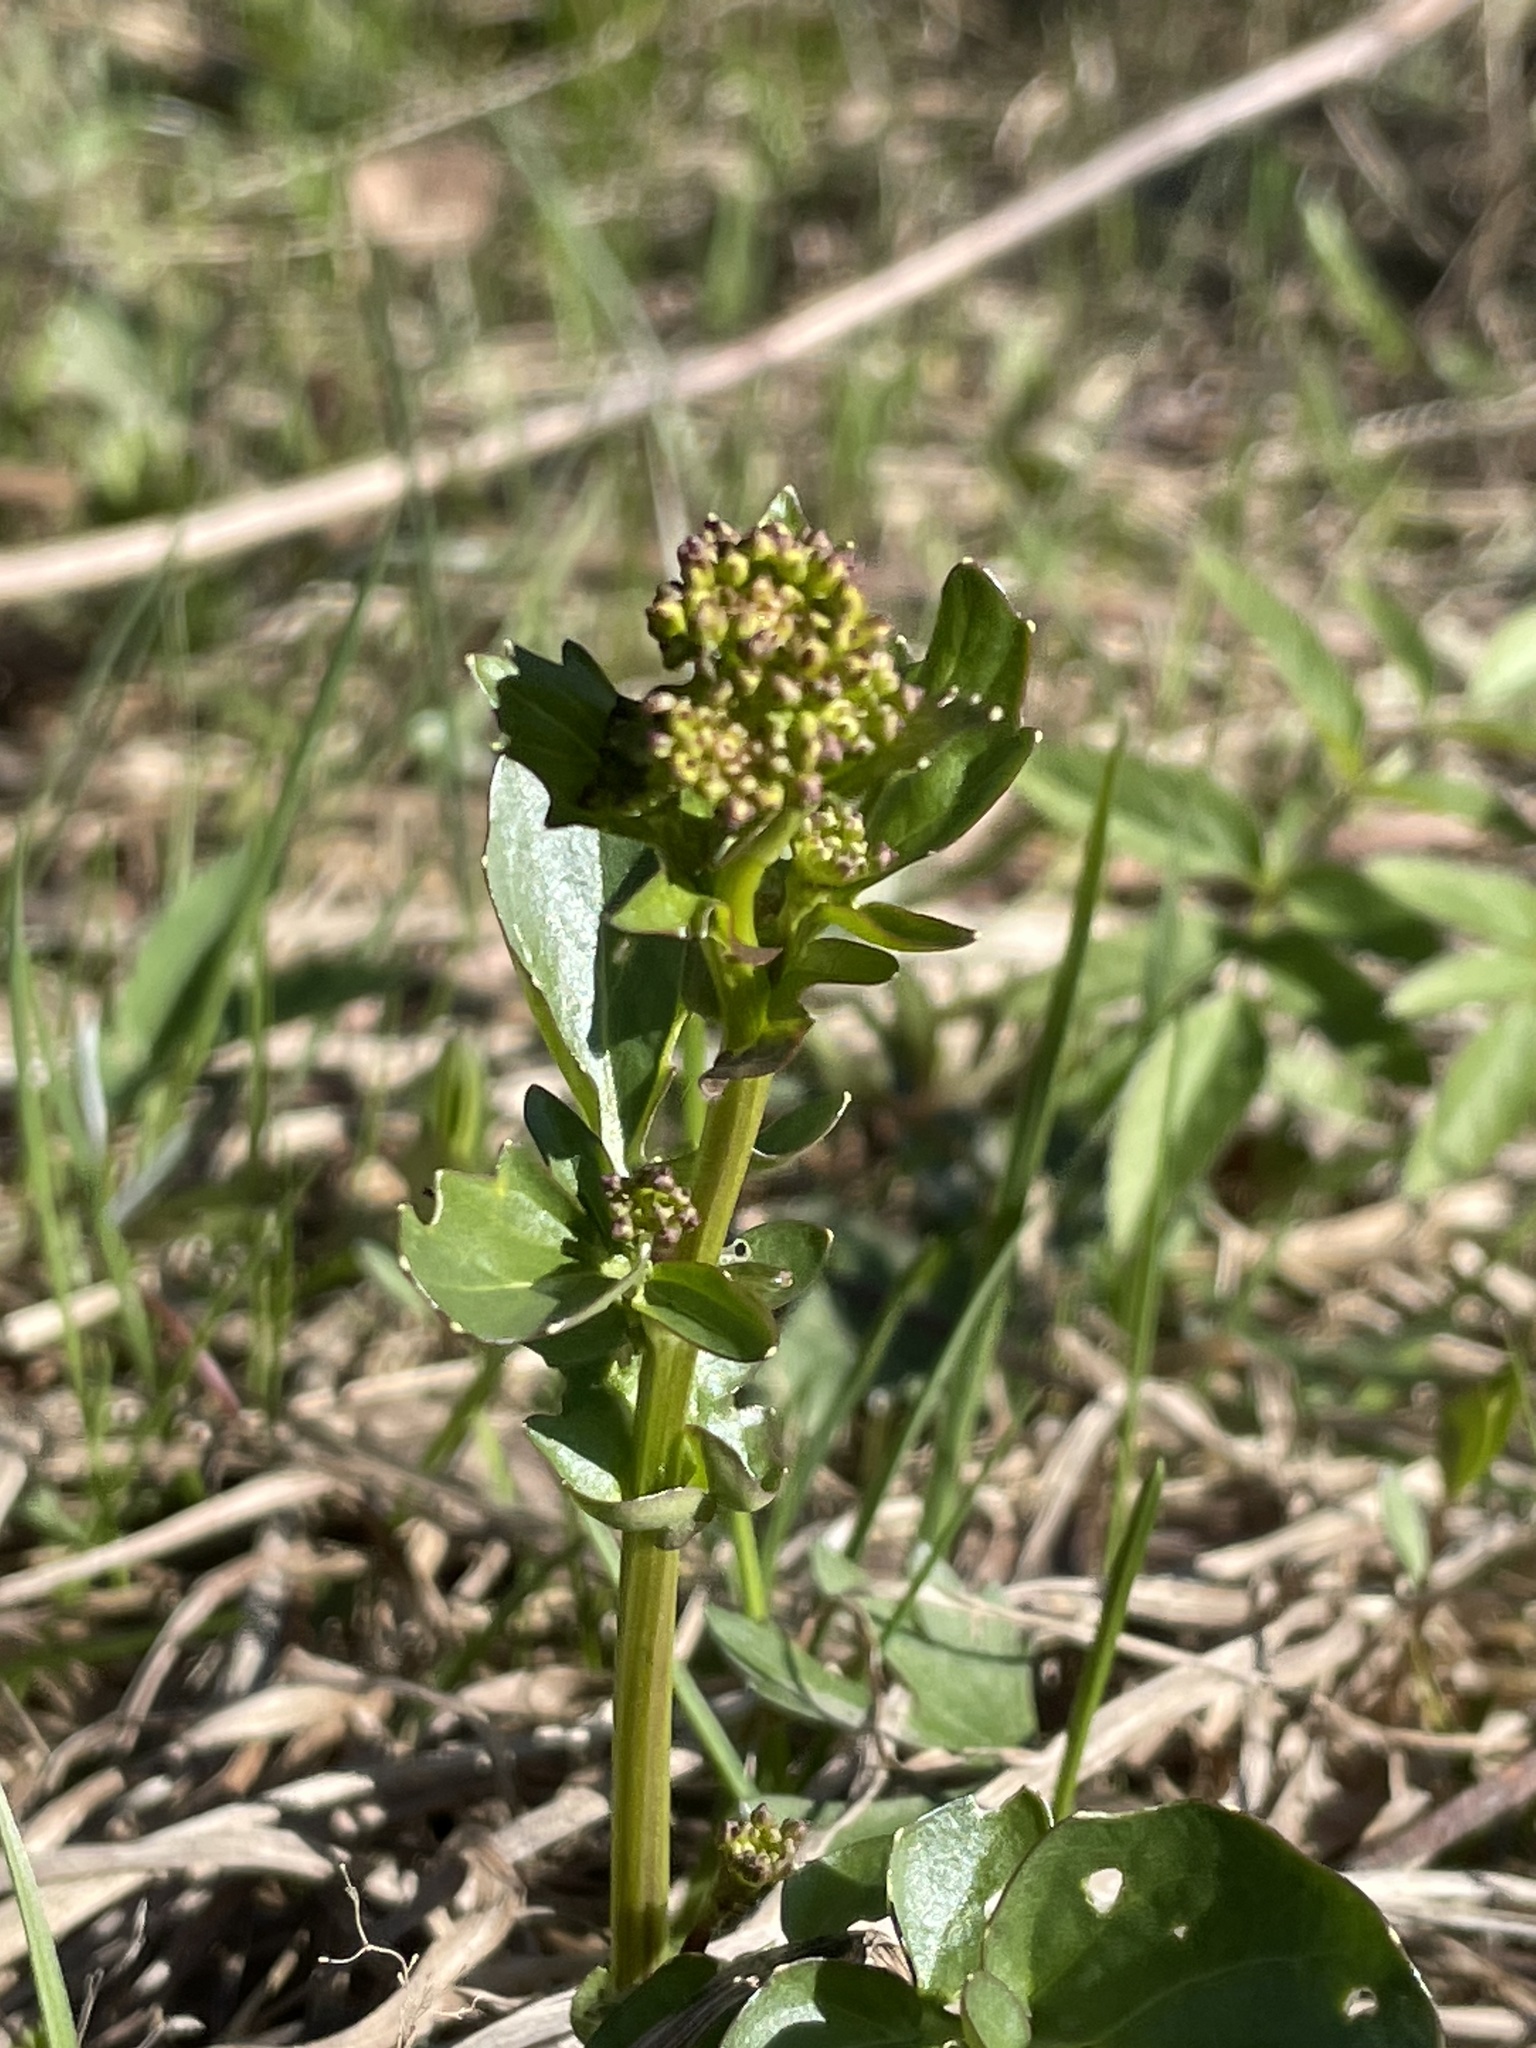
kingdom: Plantae
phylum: Tracheophyta
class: Magnoliopsida
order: Brassicales
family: Brassicaceae
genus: Barbarea
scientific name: Barbarea vulgaris
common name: Cressy-greens
